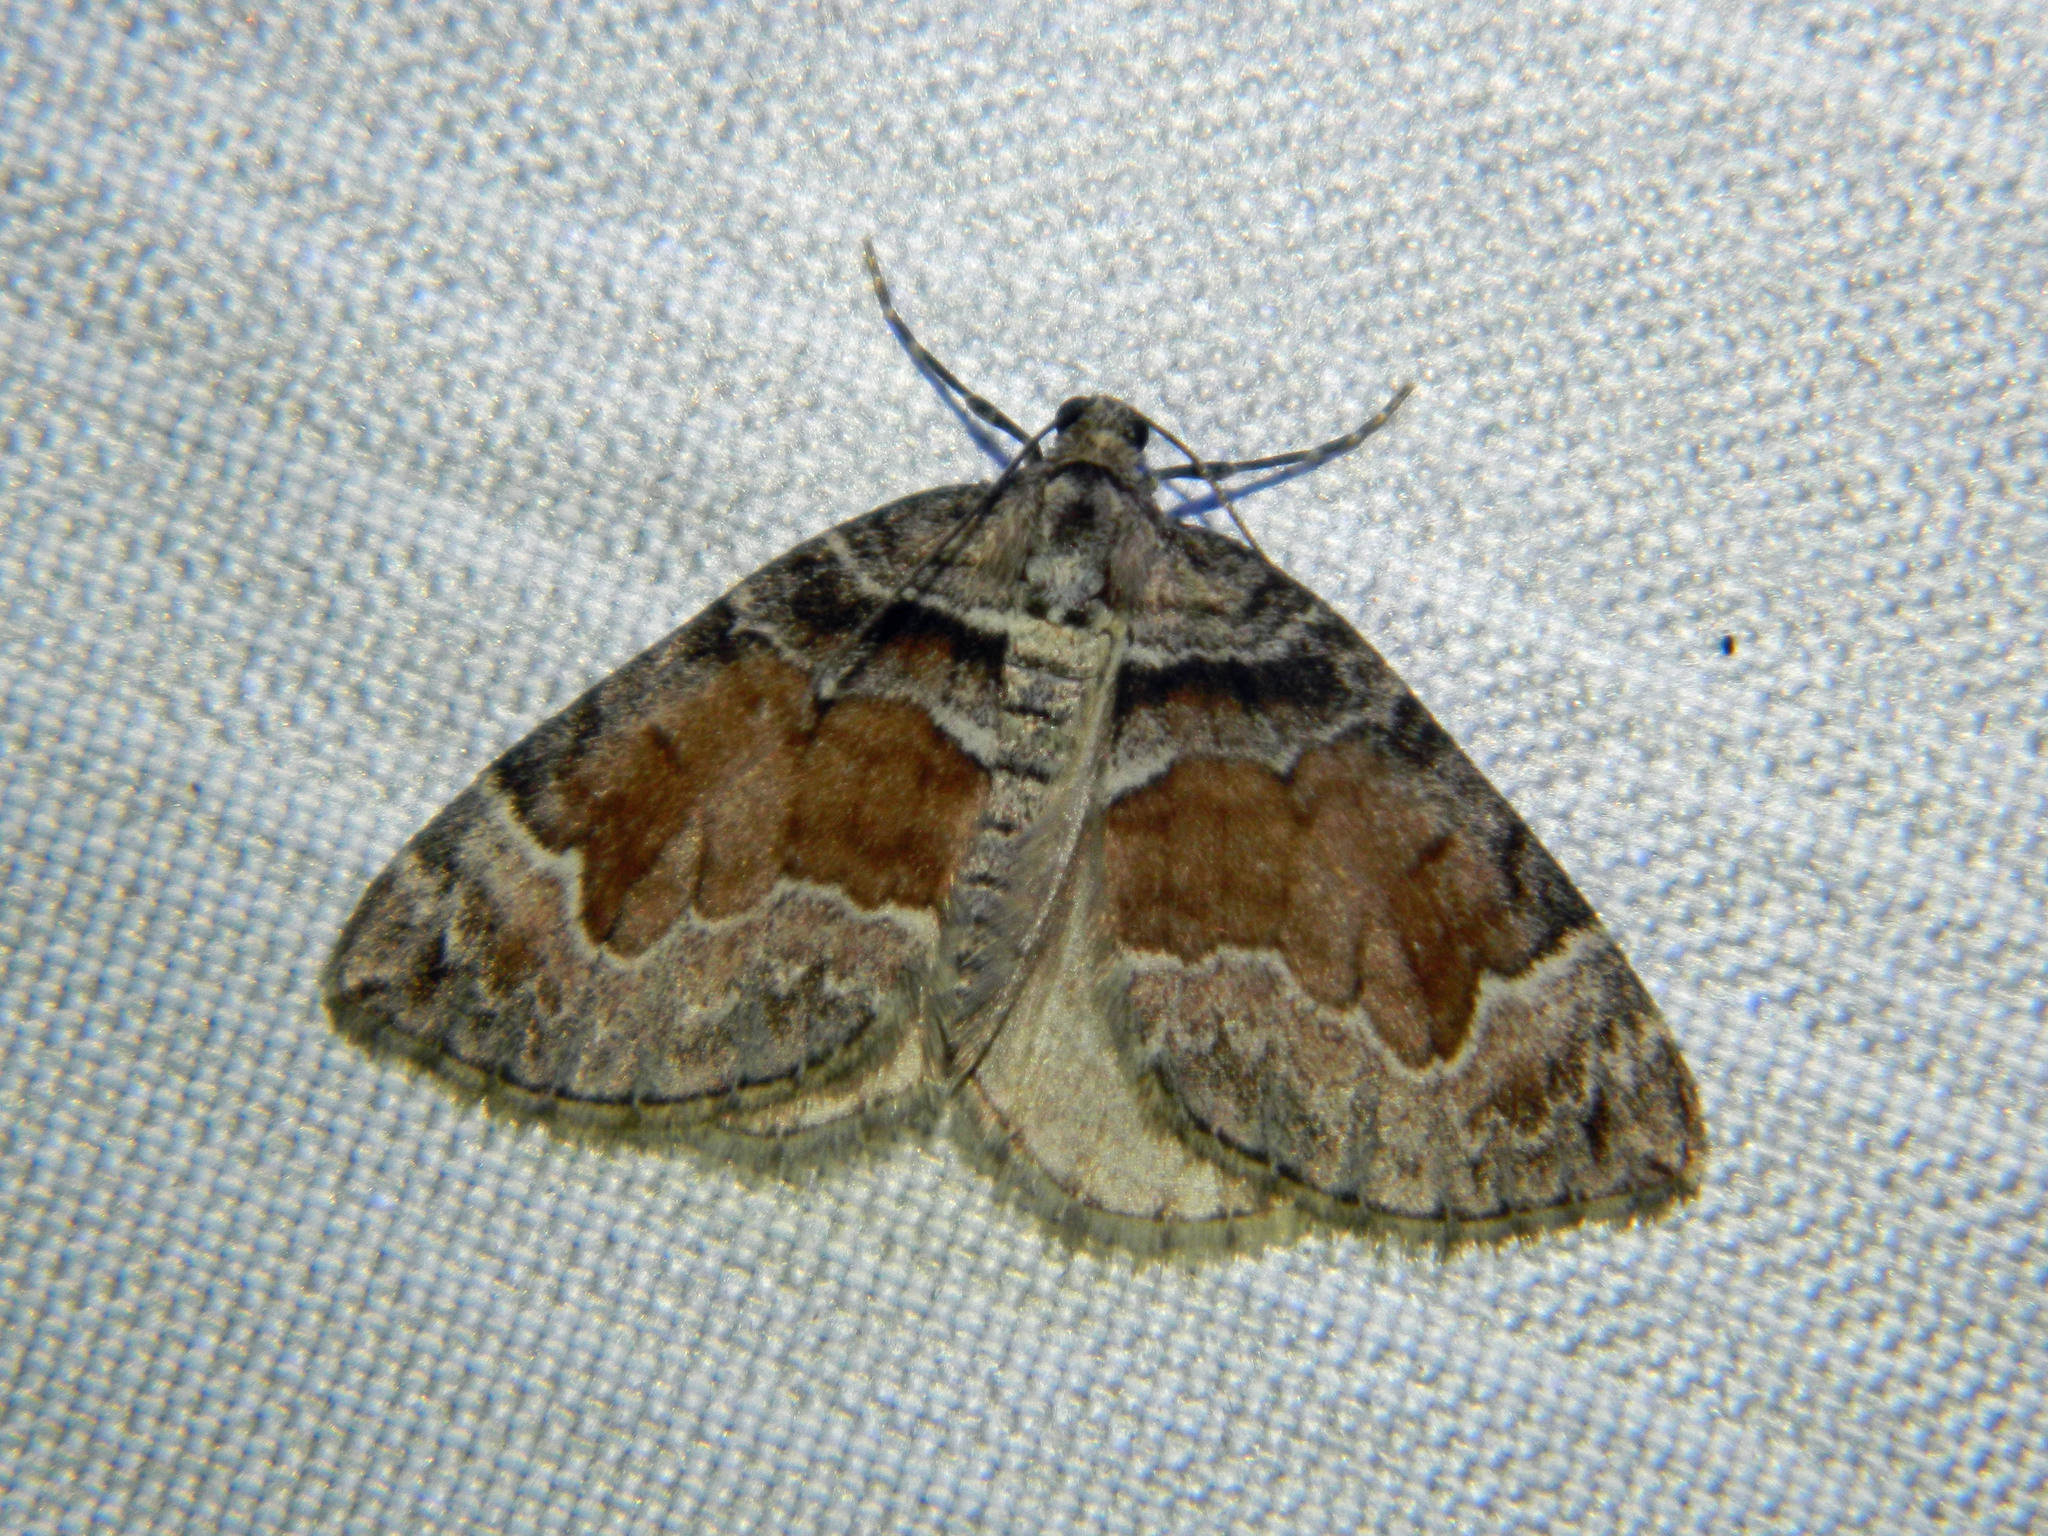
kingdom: Animalia
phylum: Arthropoda
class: Insecta
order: Lepidoptera
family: Geometridae
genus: Dysstroma
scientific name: Dysstroma hersiliata
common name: Orange-barred carpet
